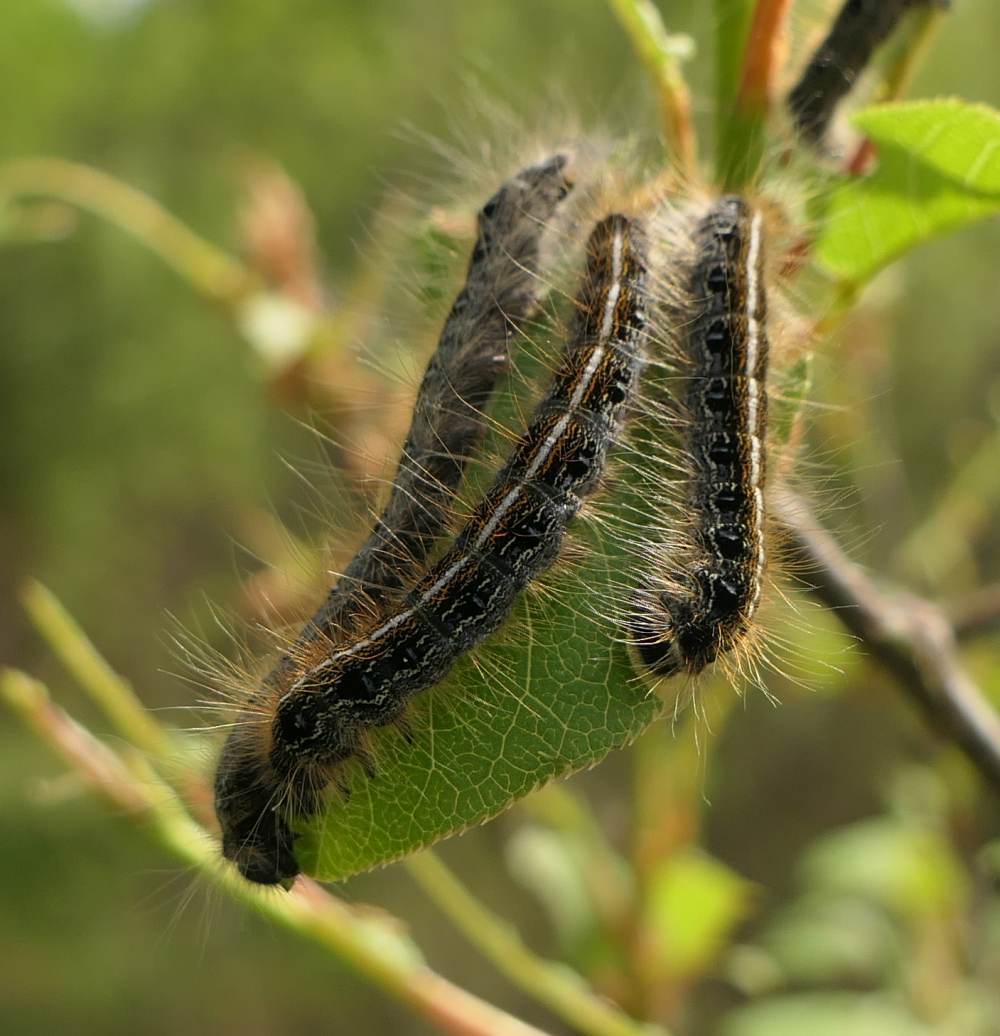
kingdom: Animalia
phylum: Arthropoda
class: Insecta
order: Lepidoptera
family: Lasiocampidae
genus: Malacosoma
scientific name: Malacosoma americana
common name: Eastern tent caterpillar moth
